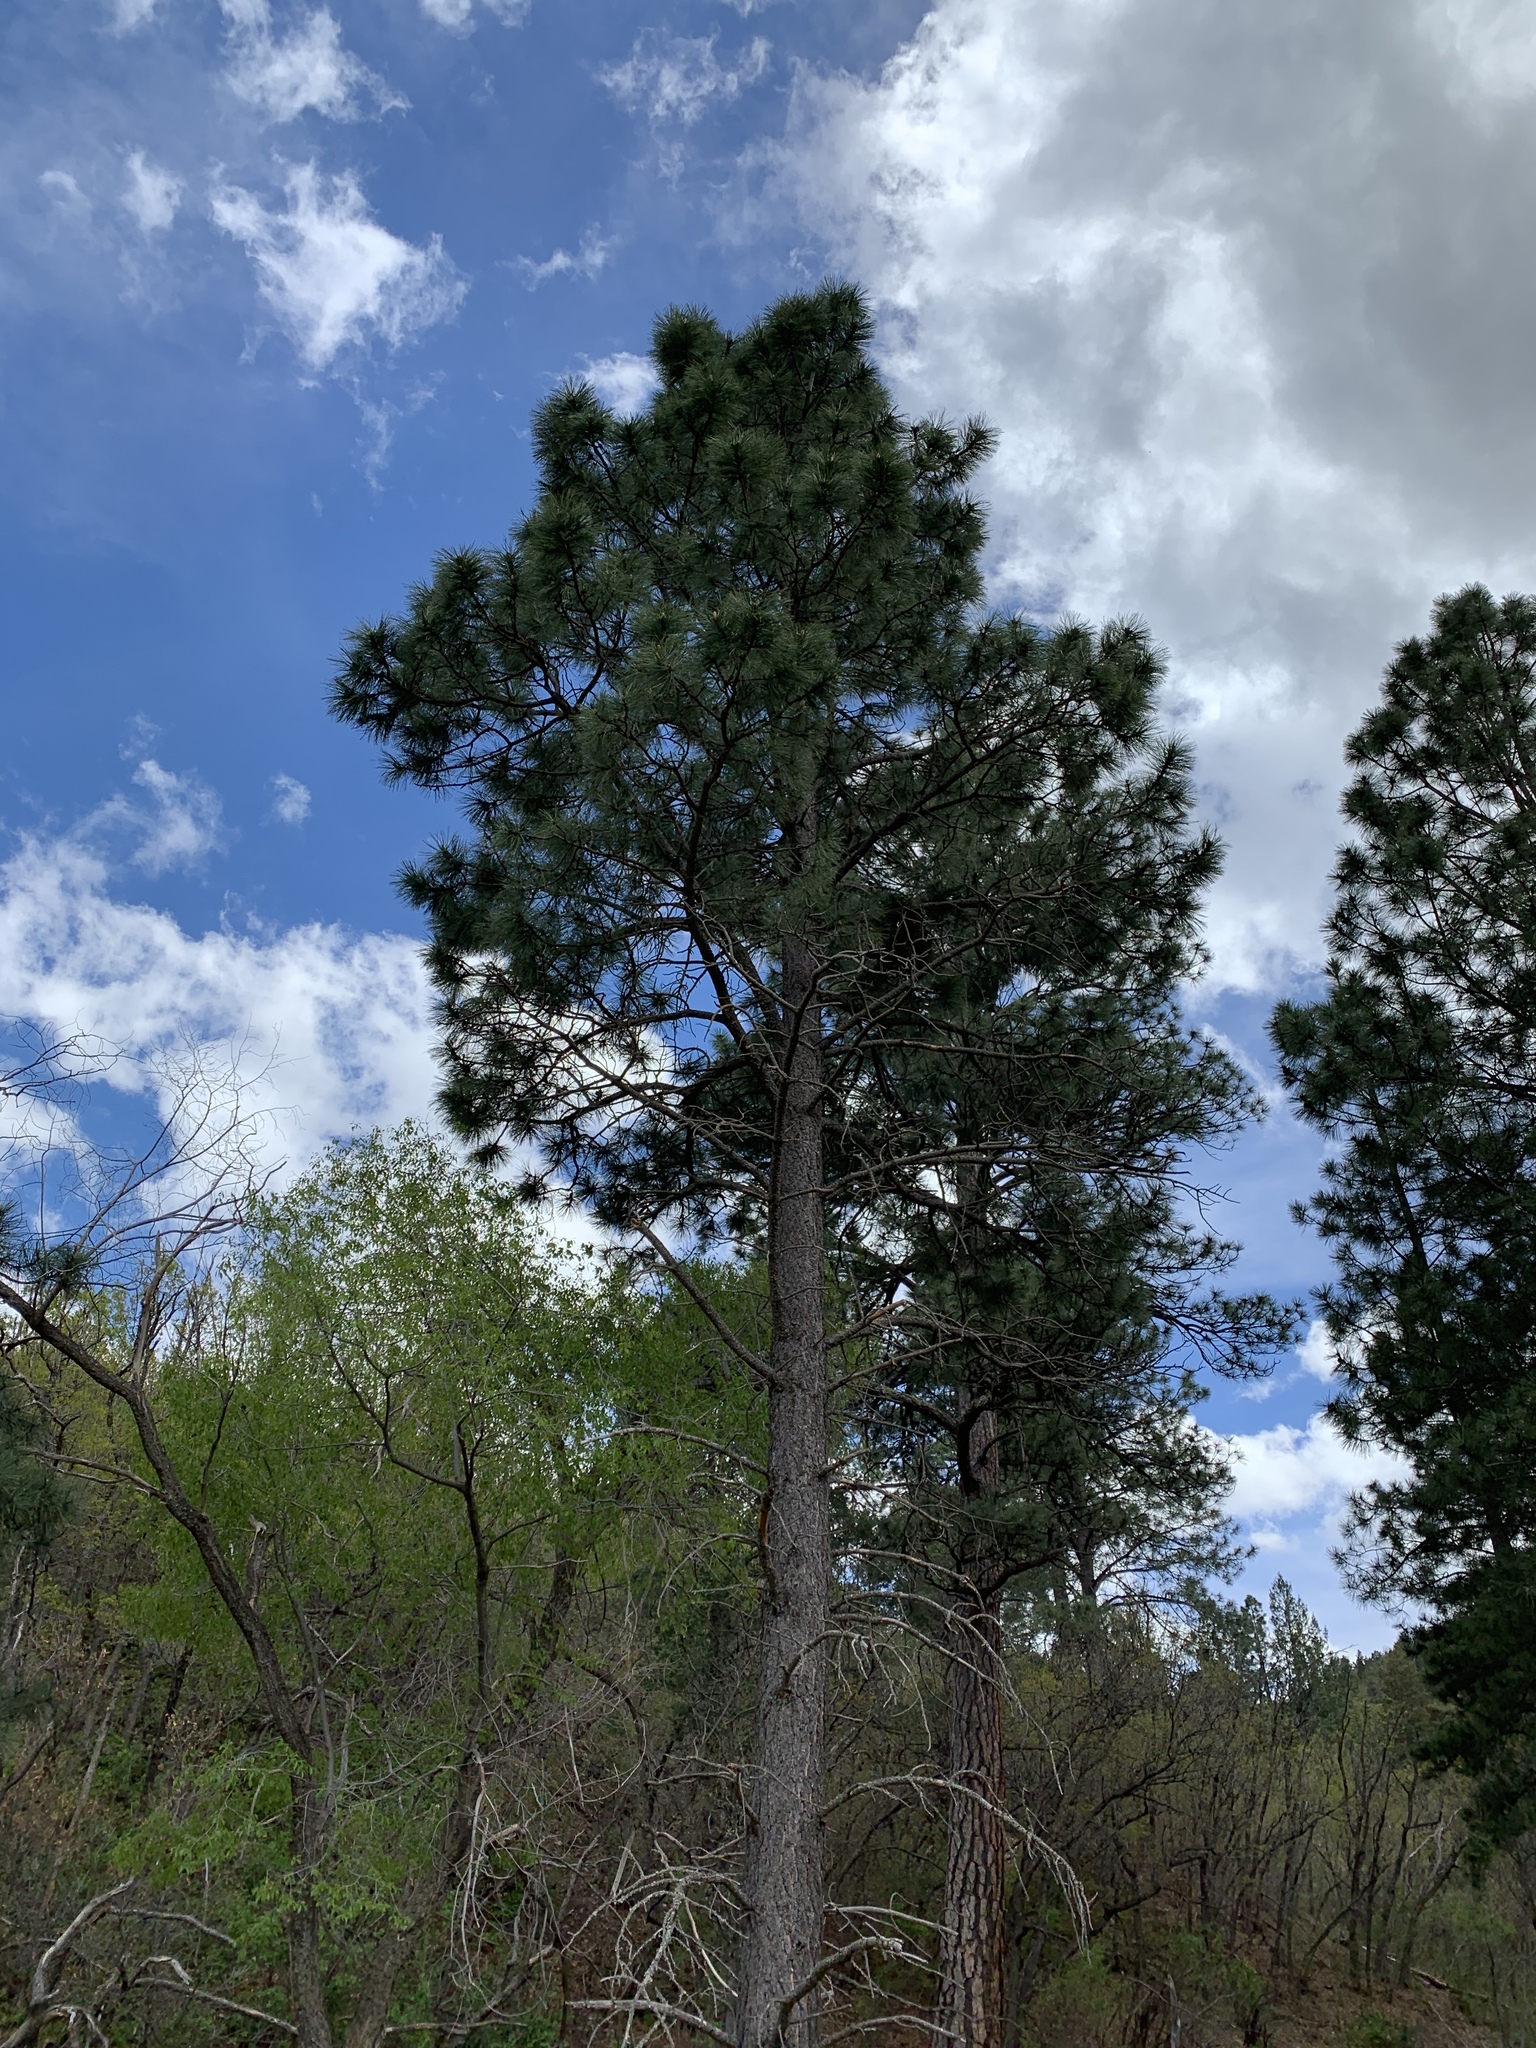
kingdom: Plantae
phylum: Tracheophyta
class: Pinopsida
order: Pinales
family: Pinaceae
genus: Pinus
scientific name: Pinus ponderosa
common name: Western yellow-pine
